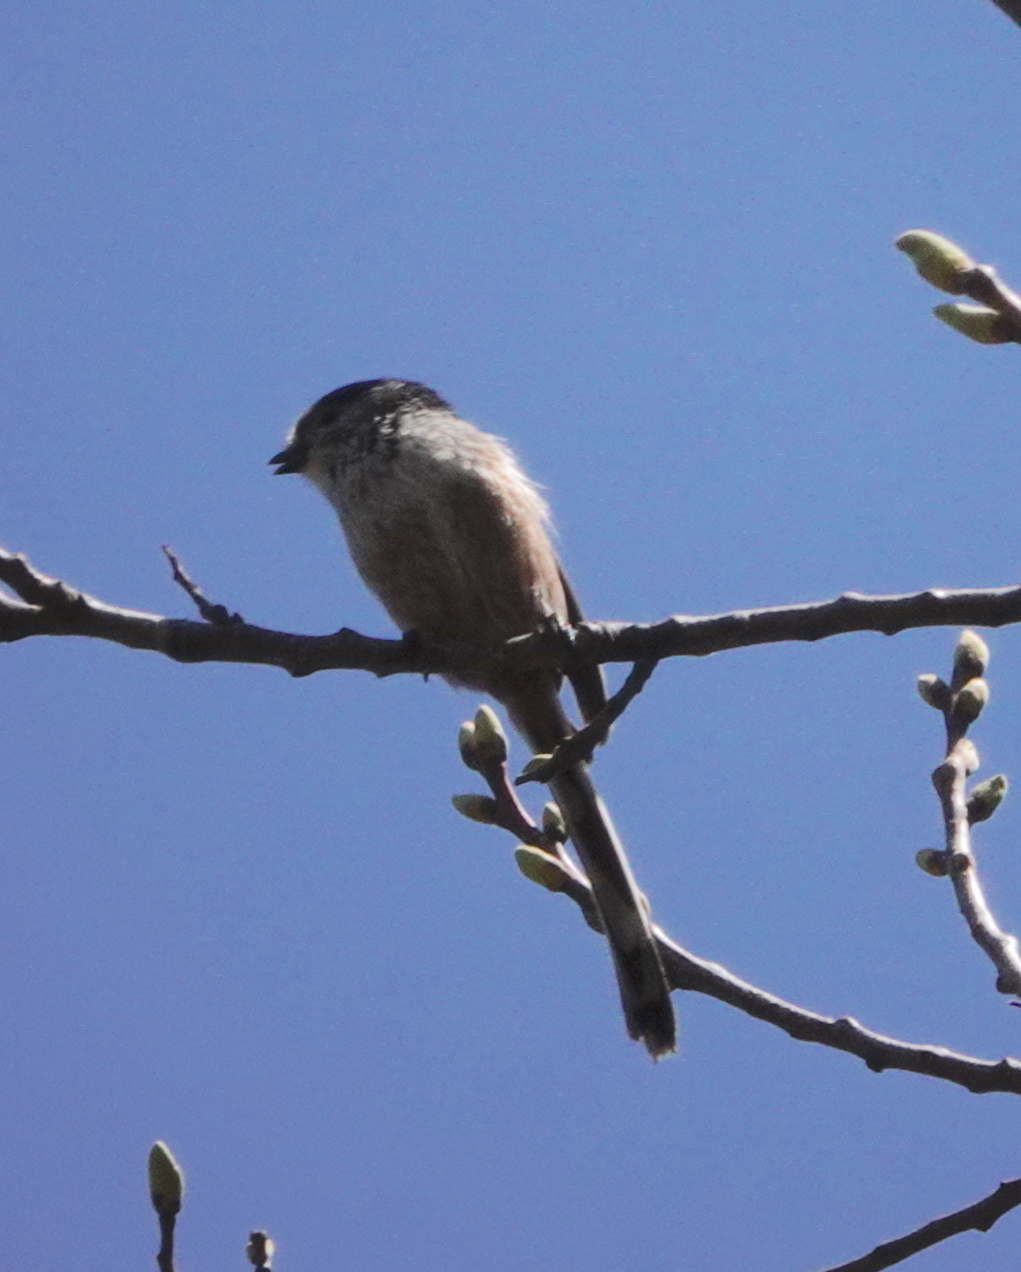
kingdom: Animalia
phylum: Chordata
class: Aves
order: Passeriformes
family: Aegithalidae
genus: Aegithalos
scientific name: Aegithalos caudatus
